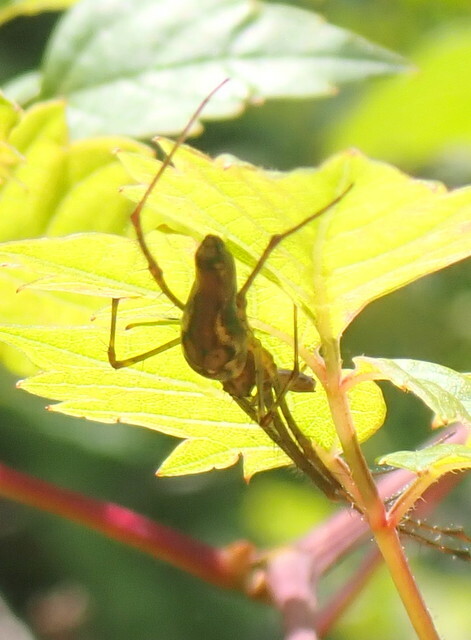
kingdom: Animalia
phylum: Arthropoda
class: Arachnida
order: Araneae
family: Tetragnathidae
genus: Tetragnatha
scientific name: Tetragnatha
